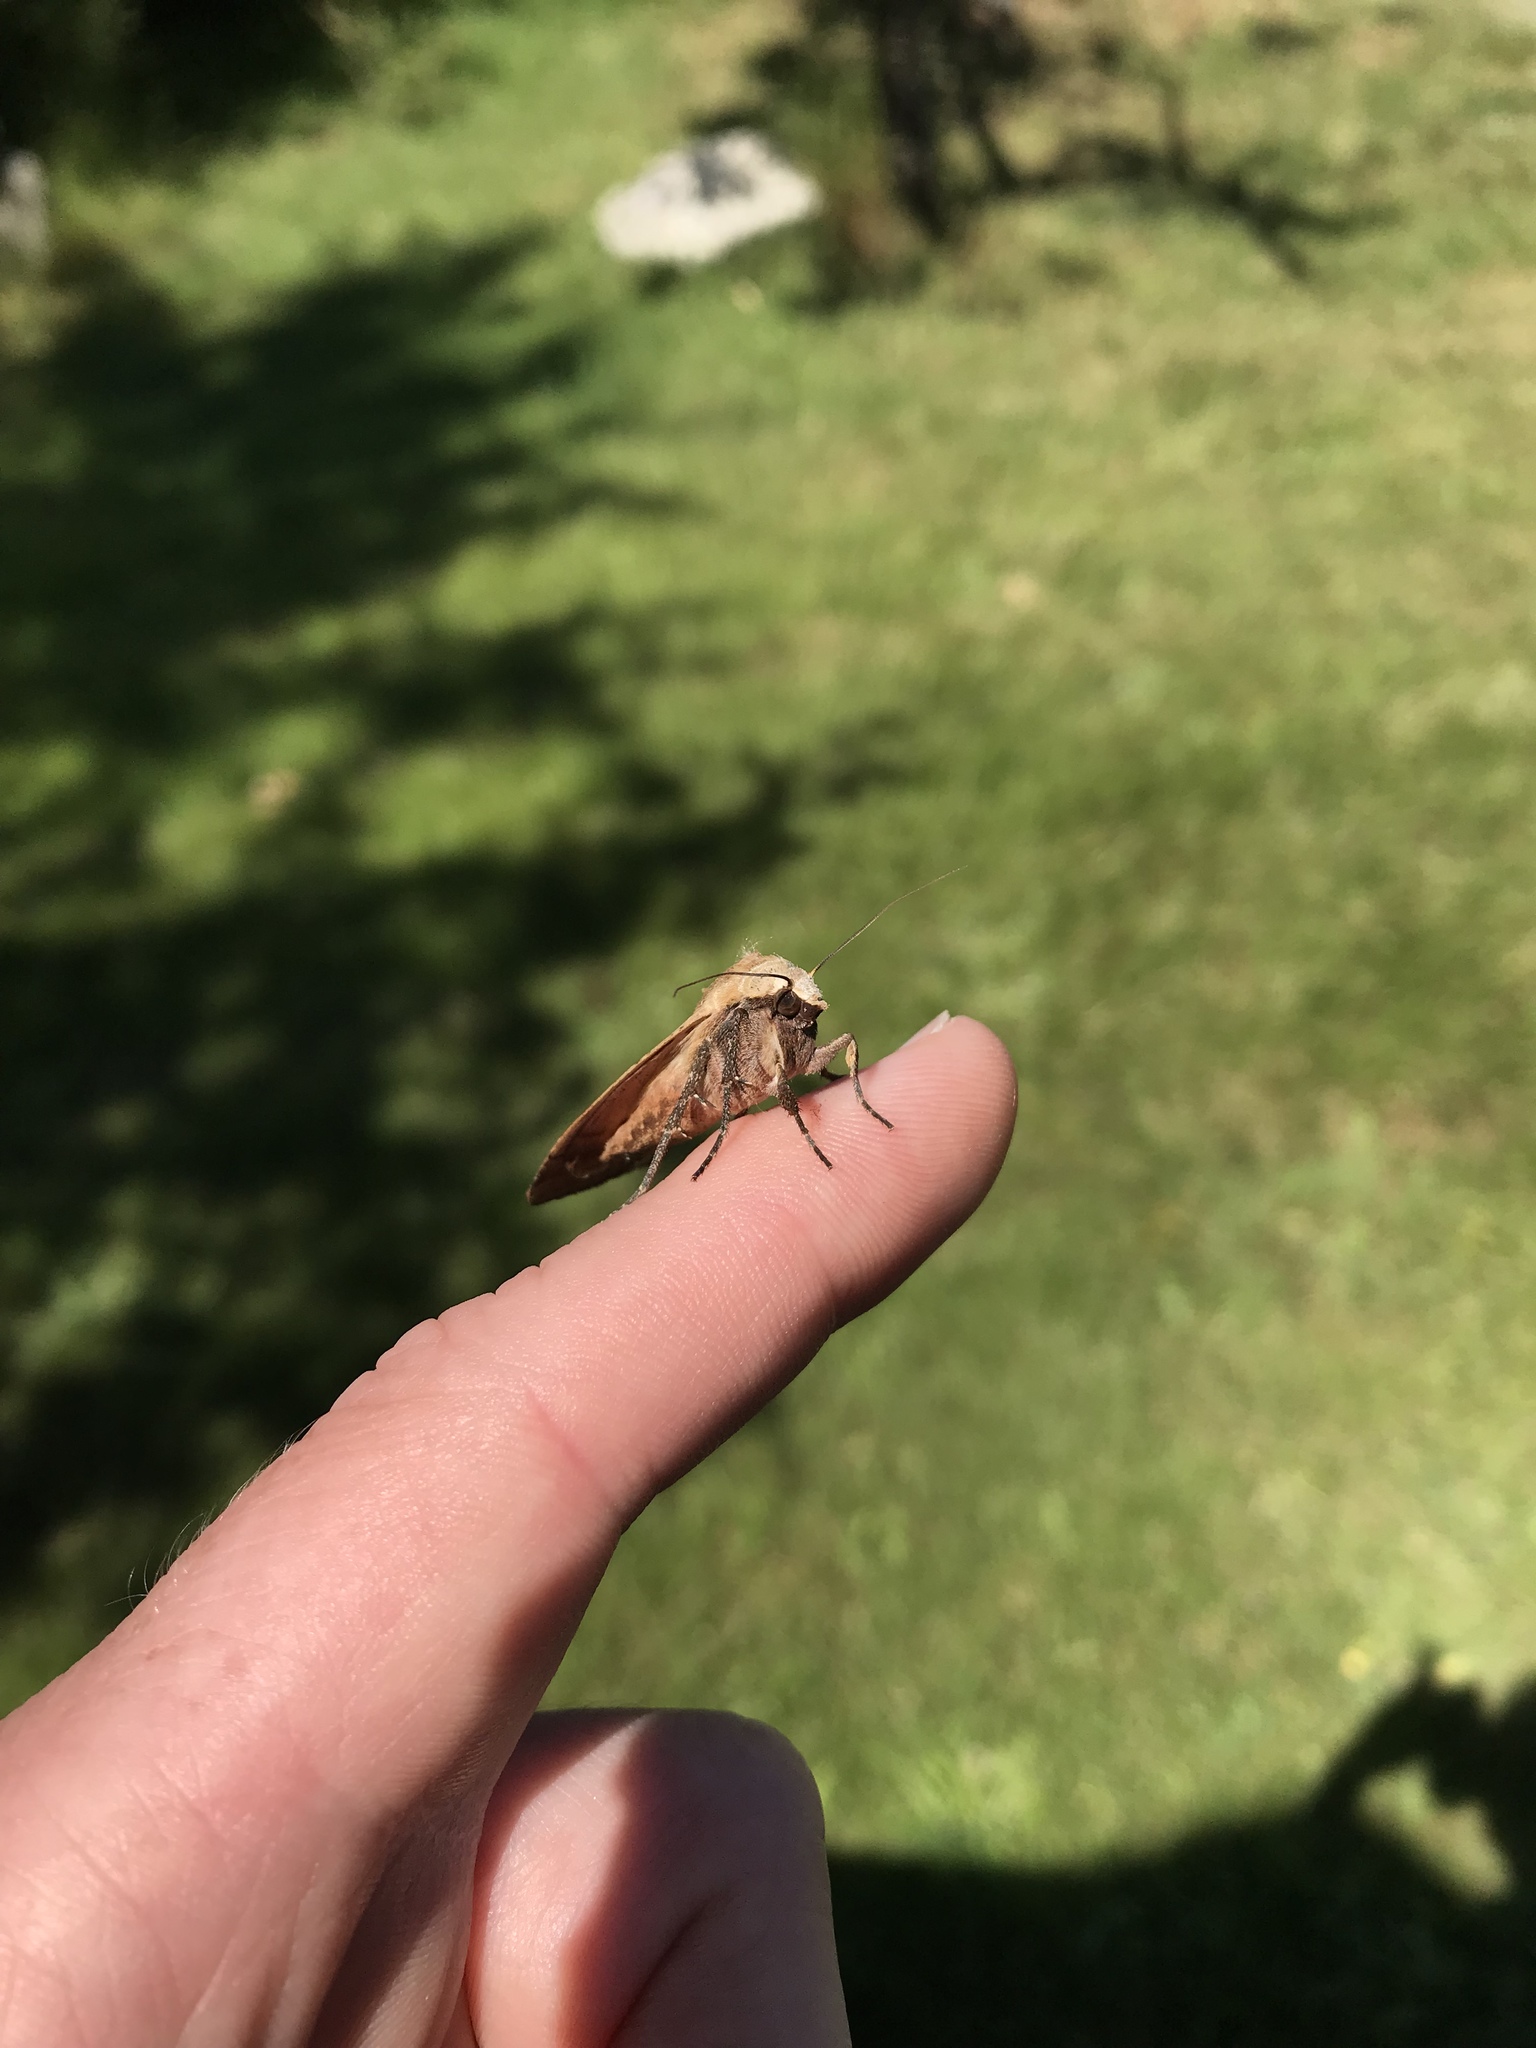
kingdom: Animalia
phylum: Arthropoda
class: Insecta
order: Lepidoptera
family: Noctuidae
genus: Noctua
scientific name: Noctua pronuba
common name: Large yellow underwing
